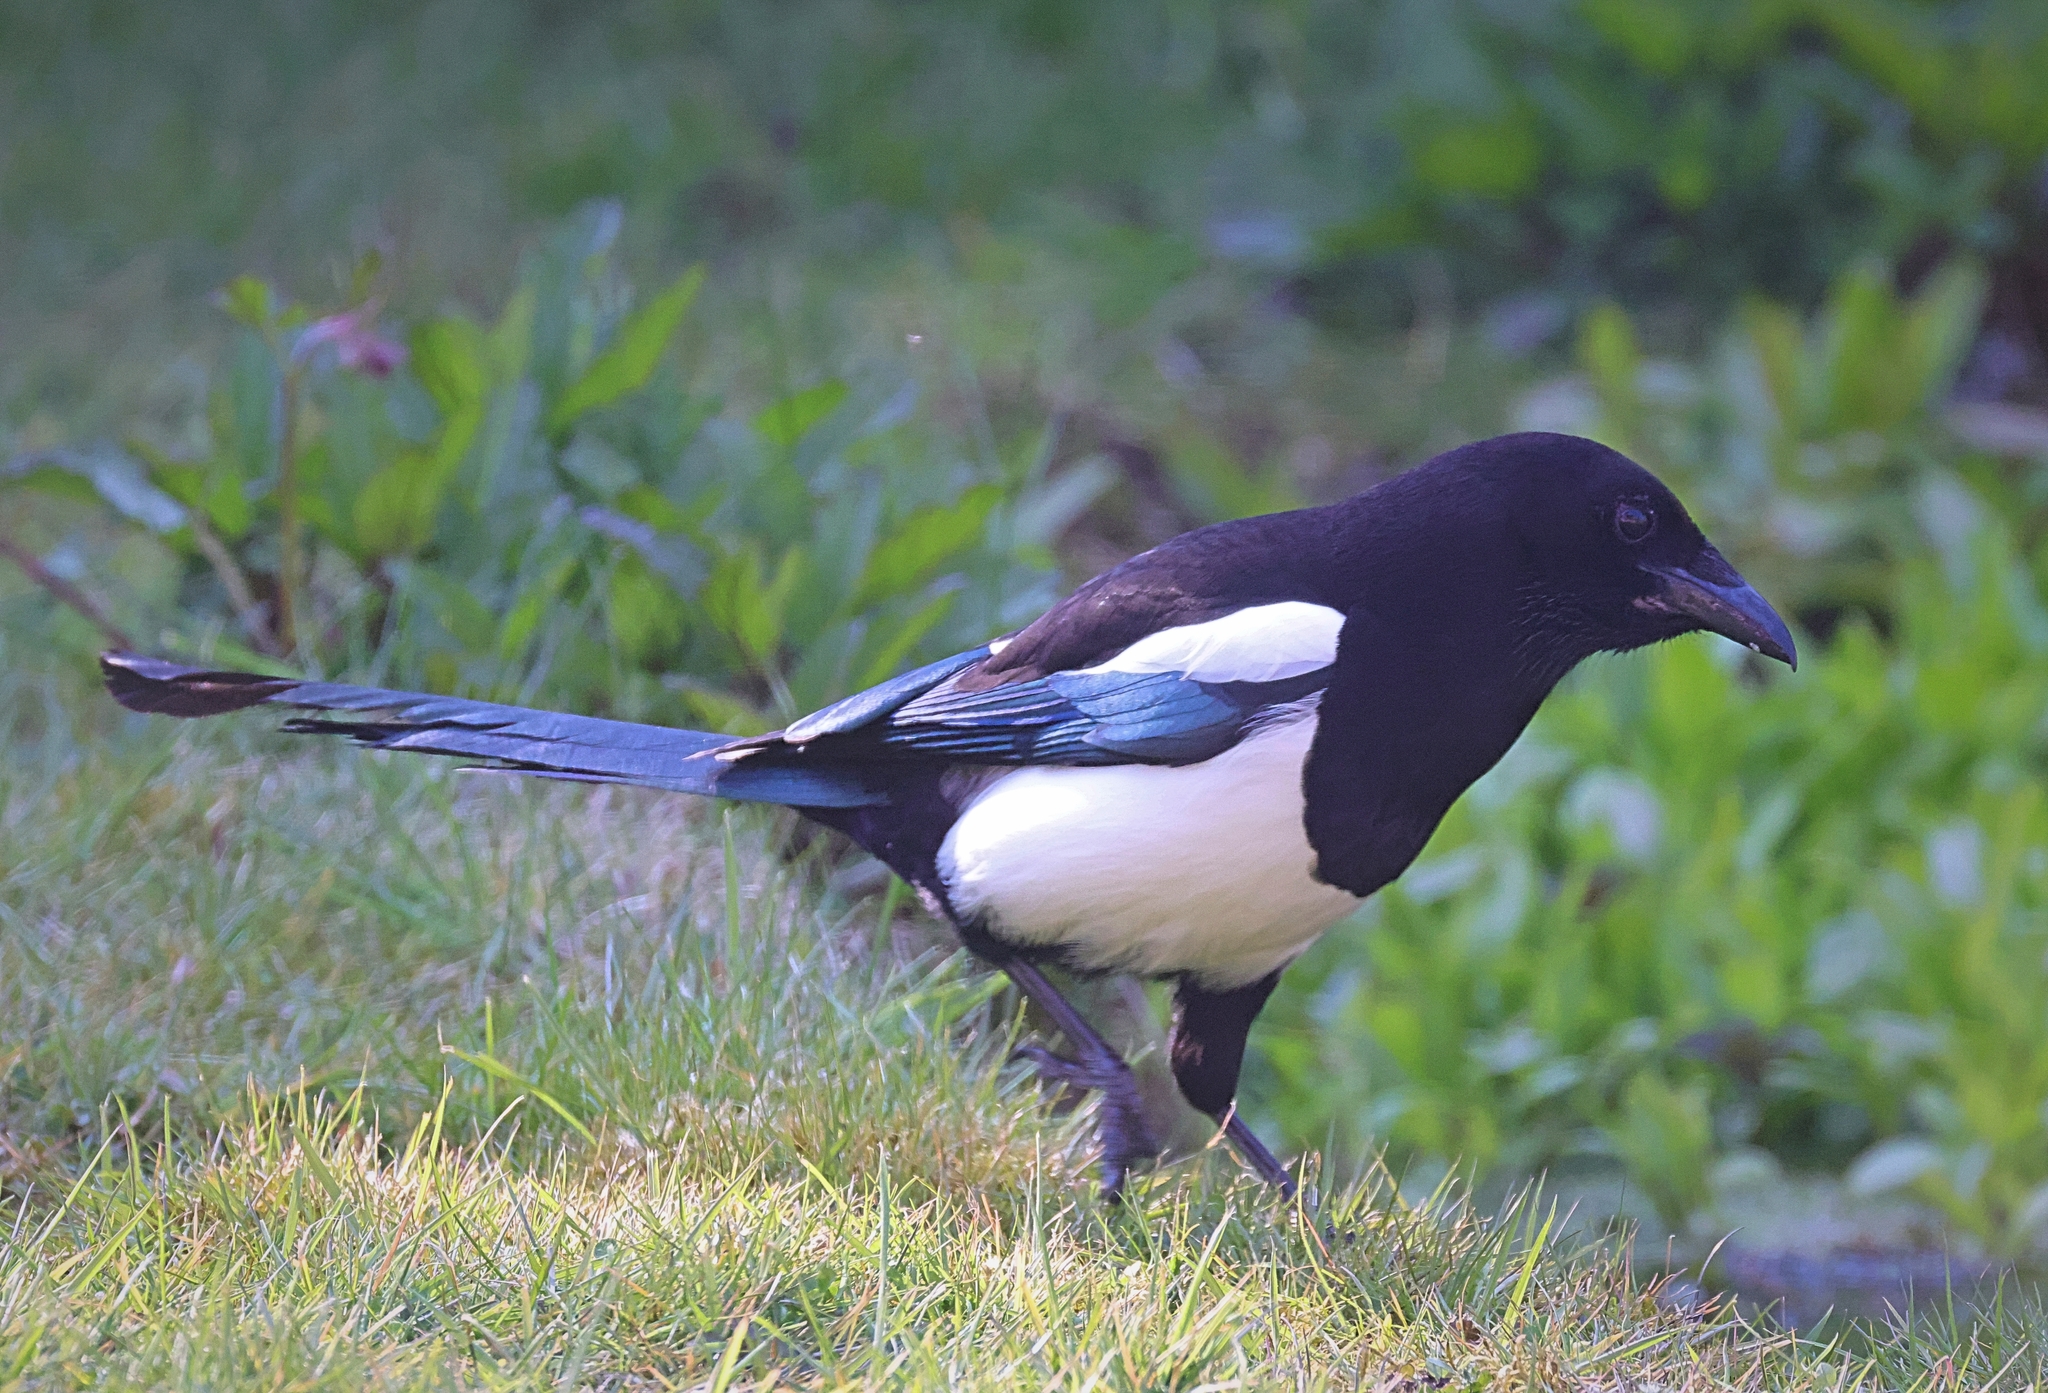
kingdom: Animalia
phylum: Chordata
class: Aves
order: Passeriformes
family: Corvidae
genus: Pica
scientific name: Pica pica
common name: Eurasian magpie
